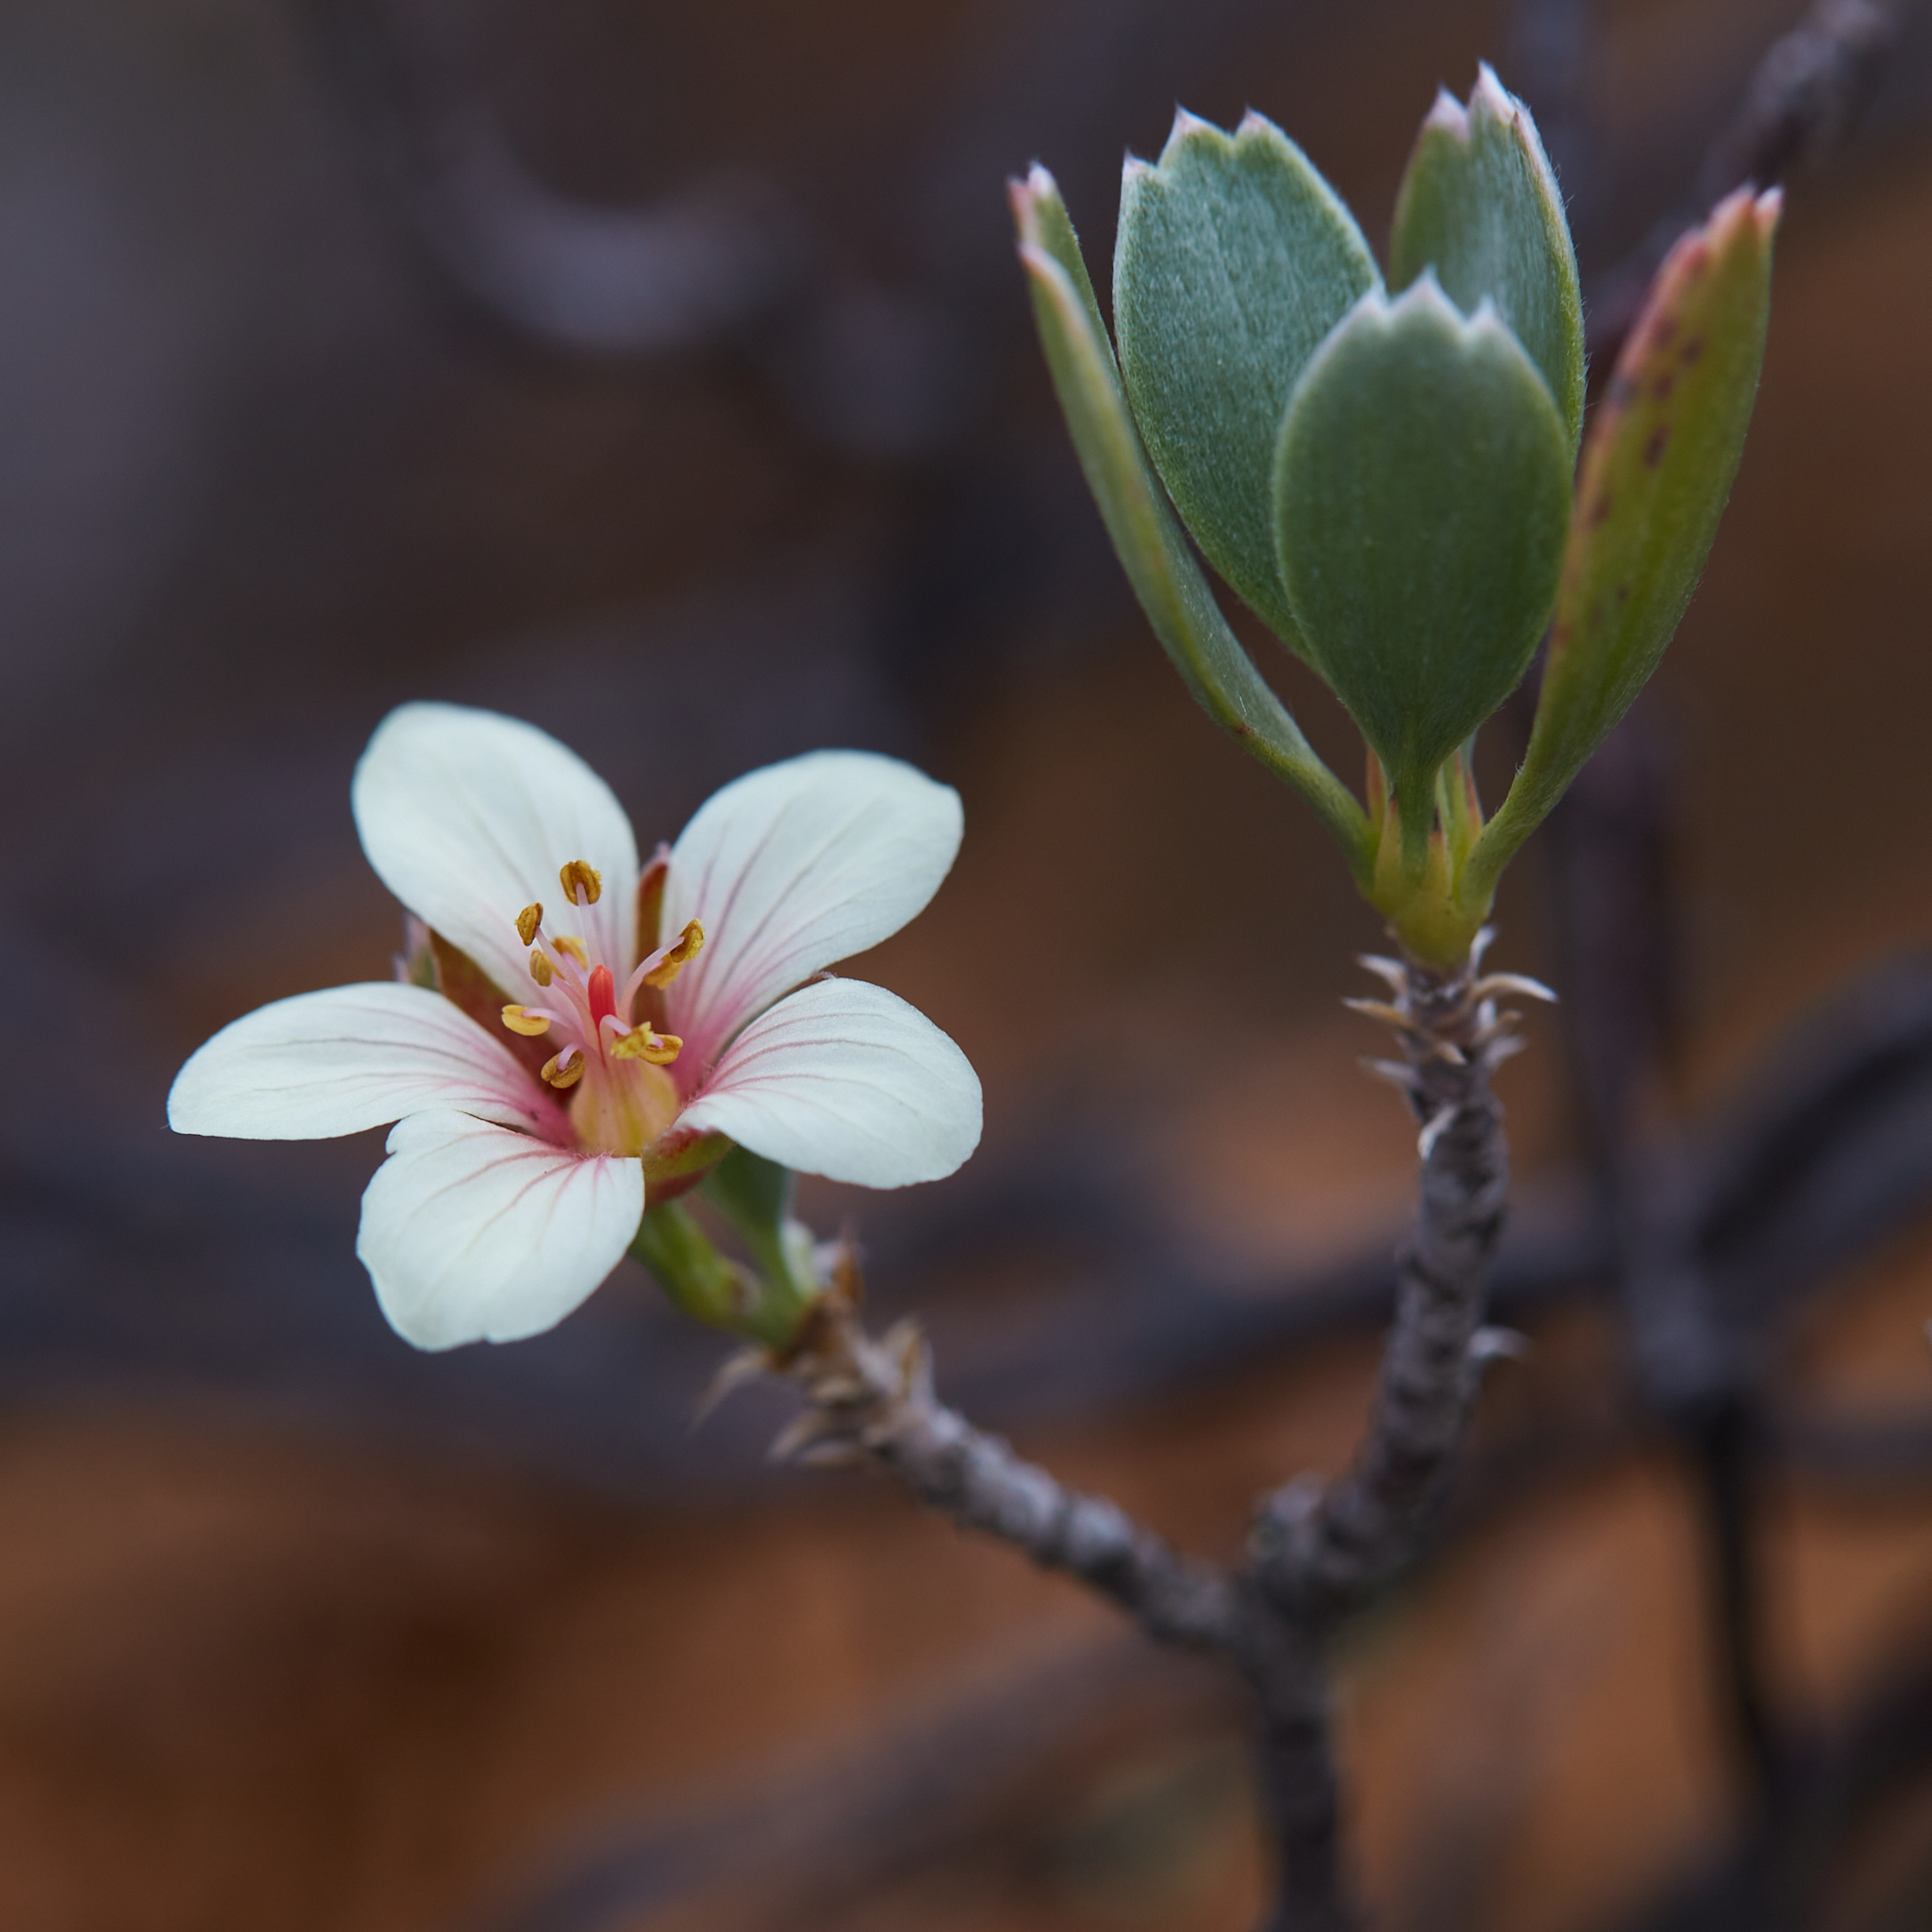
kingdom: Plantae
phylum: Tracheophyta
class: Magnoliopsida
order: Geraniales
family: Geraniaceae
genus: Geranium
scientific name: Geranium cuneatum
